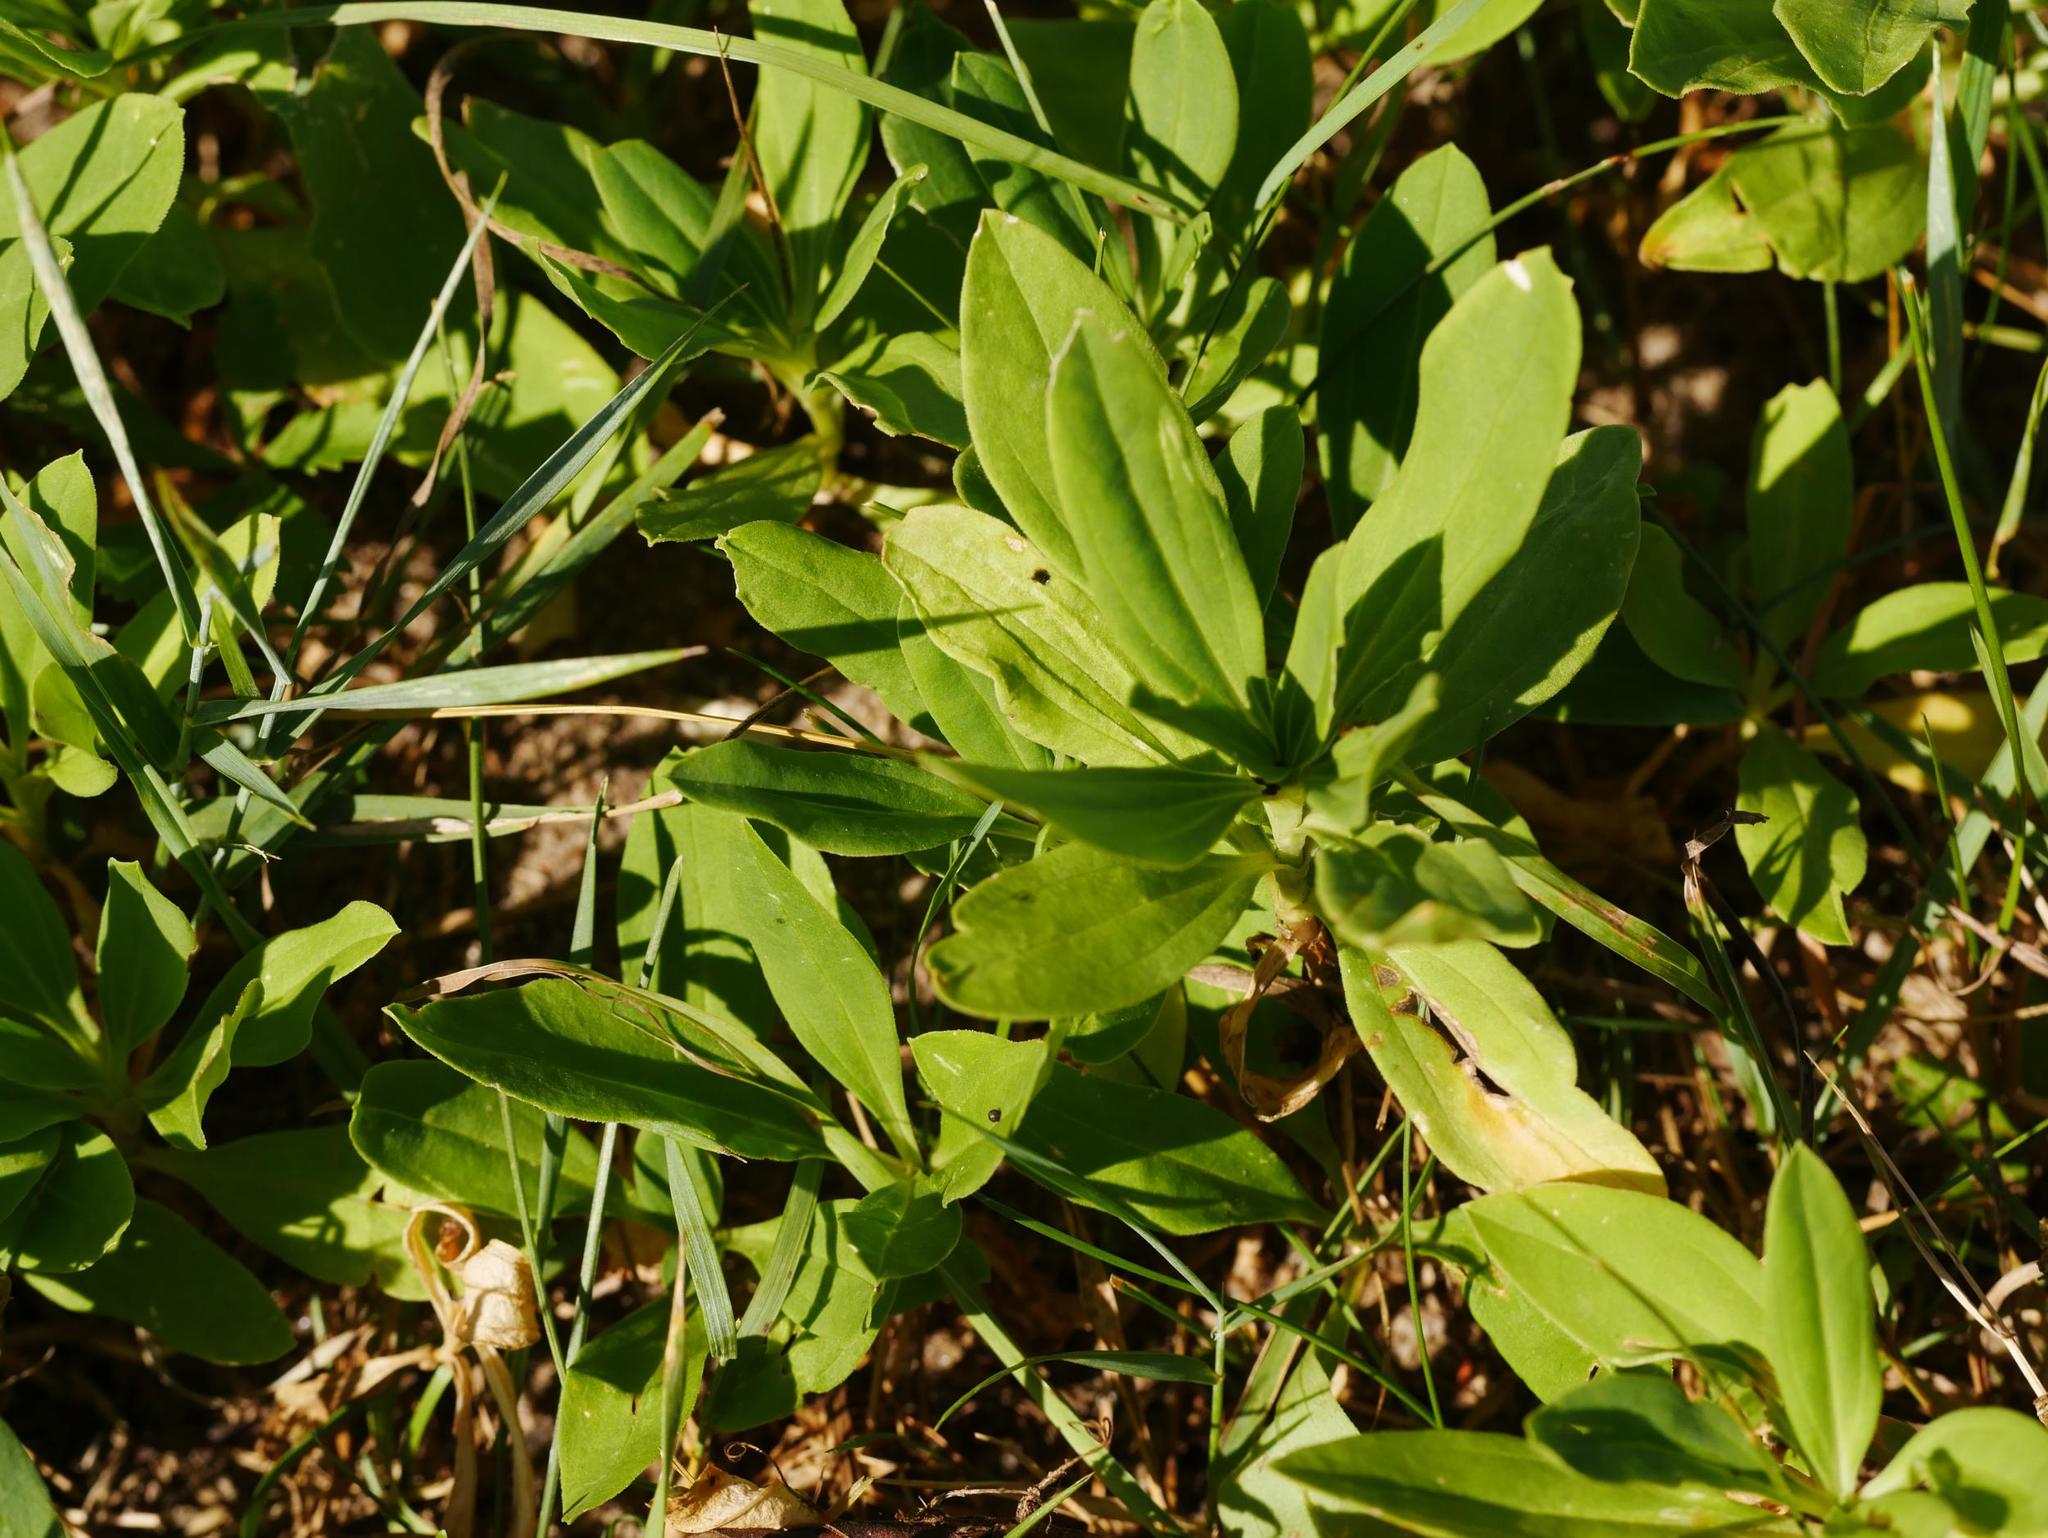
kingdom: Plantae
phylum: Tracheophyta
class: Magnoliopsida
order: Caryophyllales
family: Caryophyllaceae
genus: Saponaria
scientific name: Saponaria officinalis
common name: Soapwort
